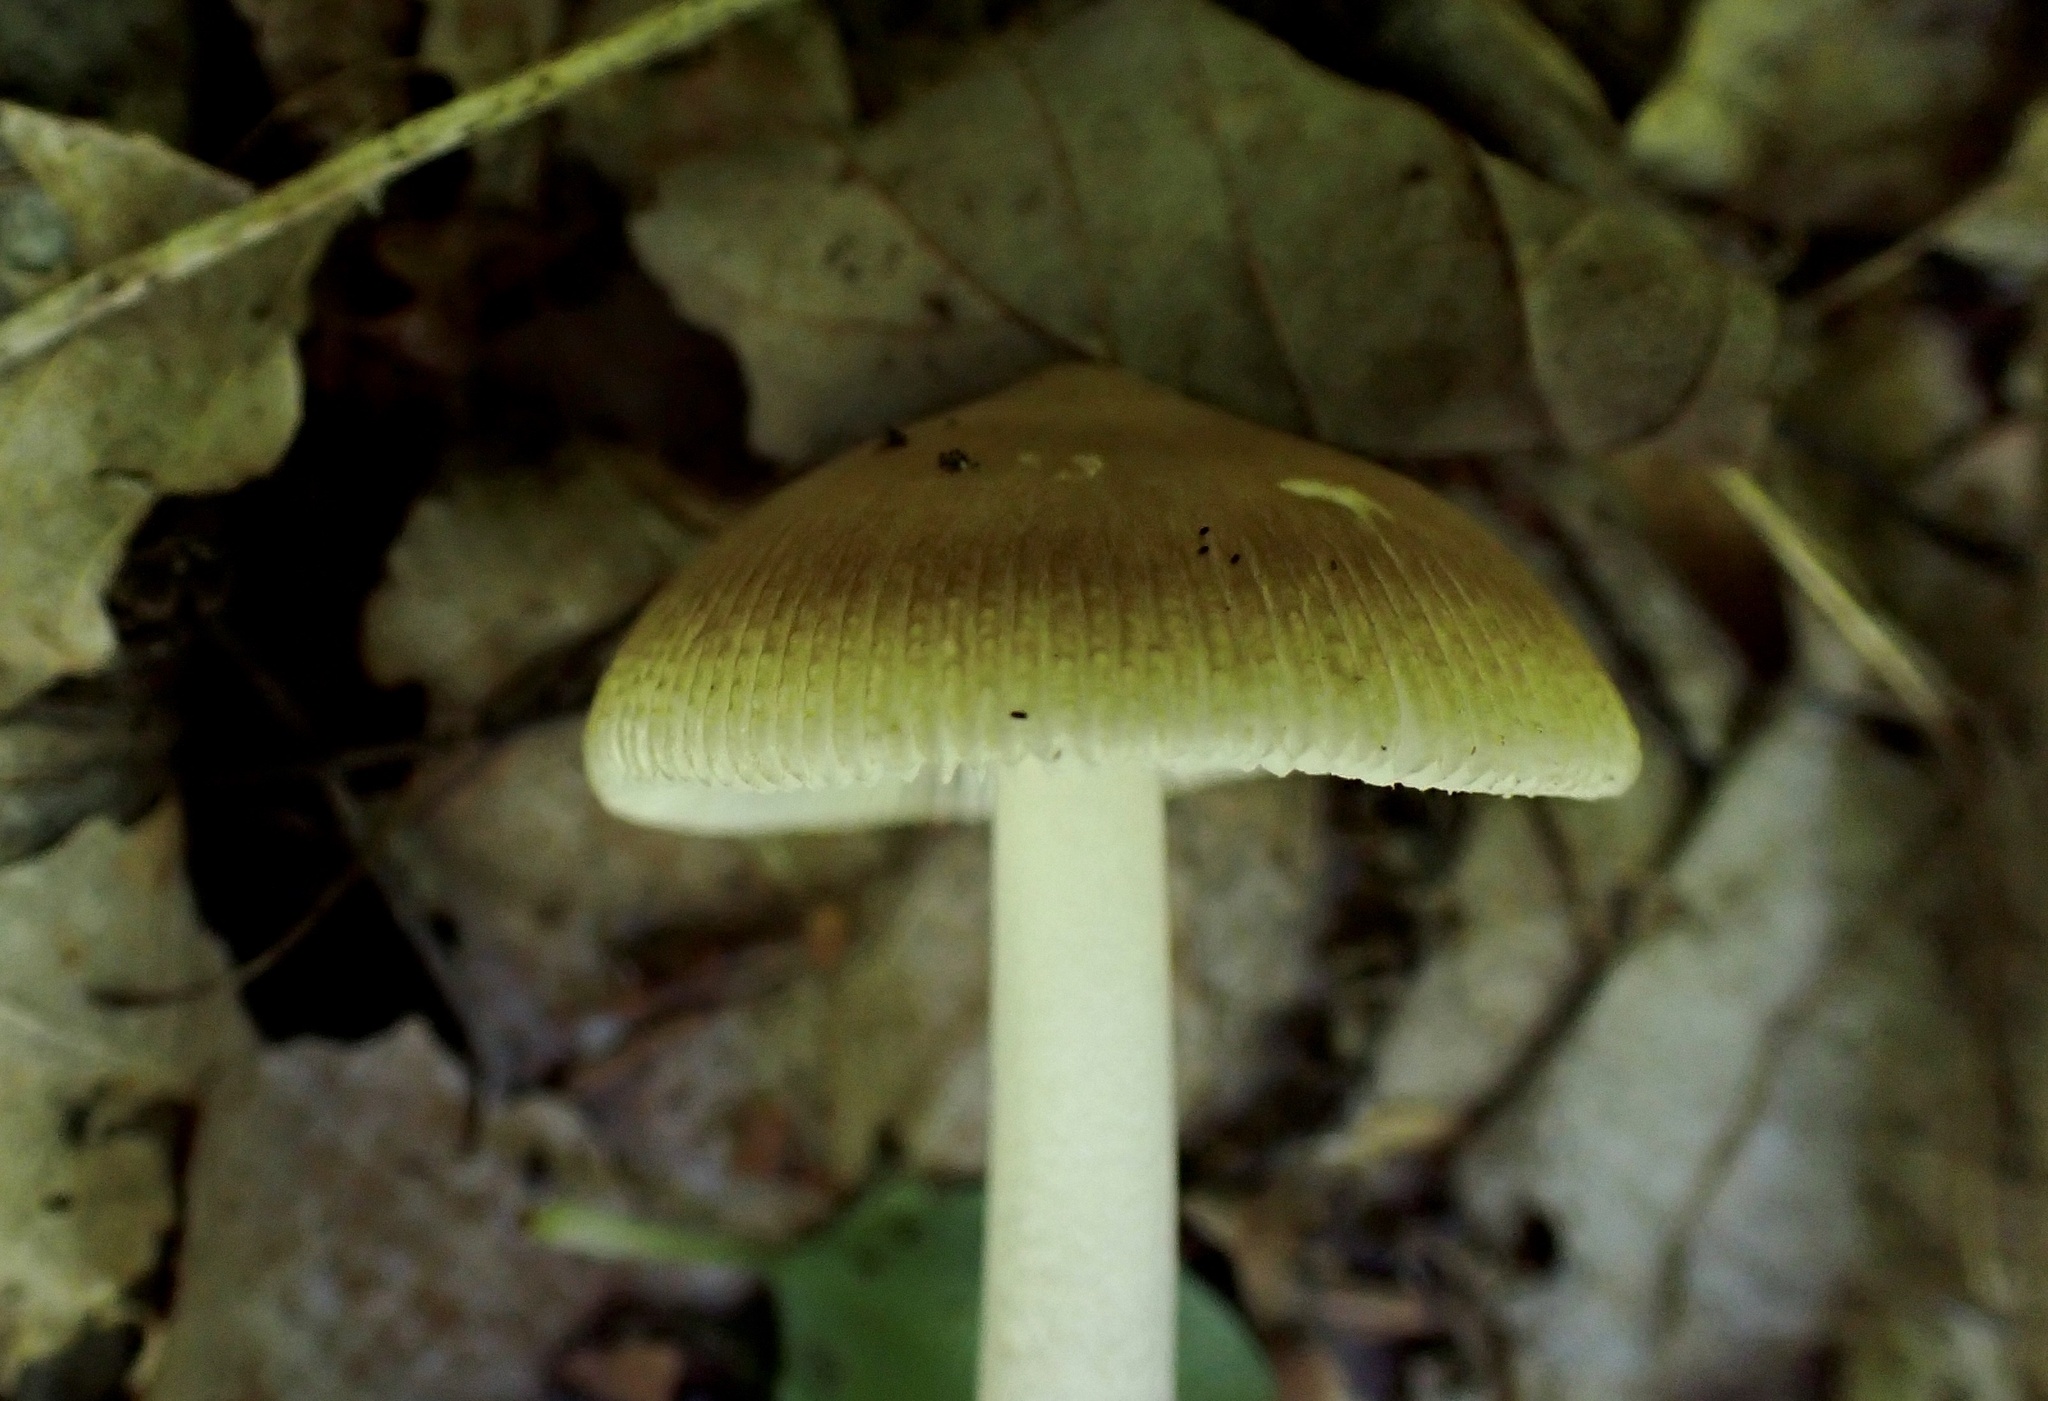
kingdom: Fungi
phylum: Basidiomycota
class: Agaricomycetes
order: Agaricales
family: Amanitaceae
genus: Amanita
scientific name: Amanita mortenii
